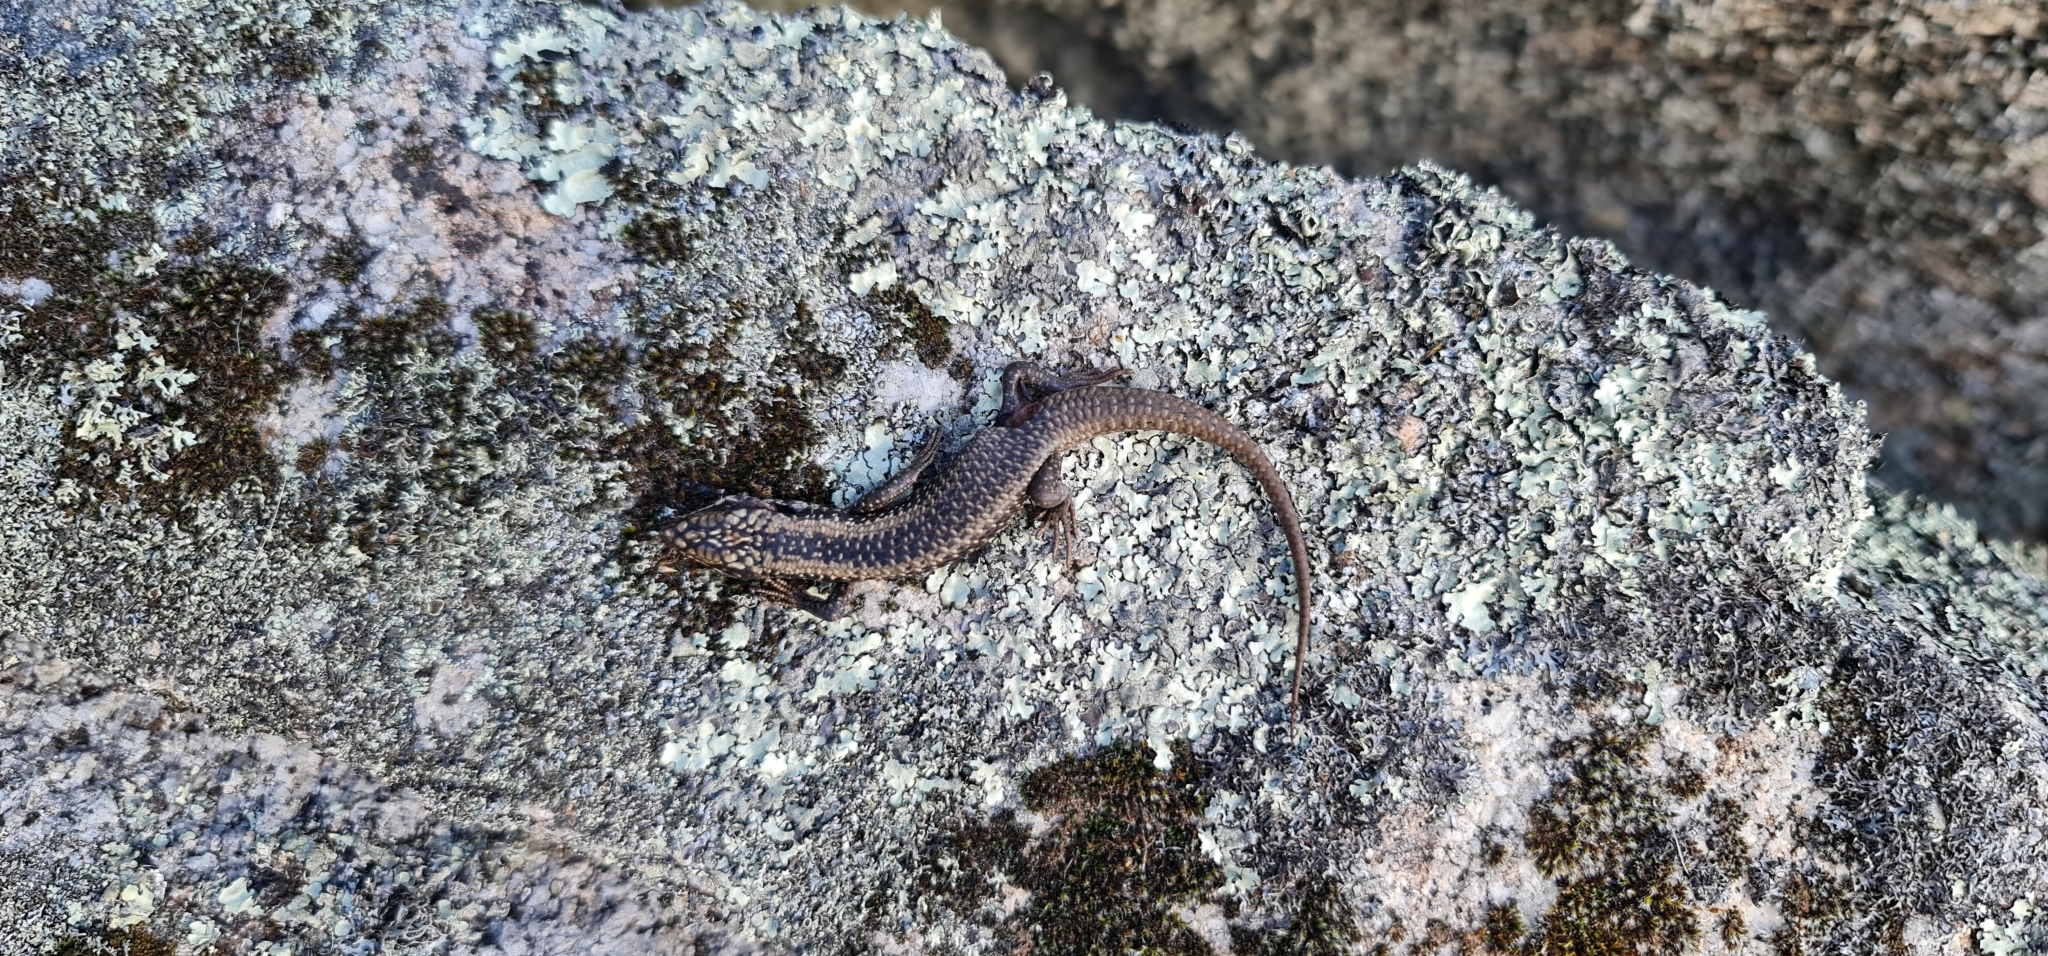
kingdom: Animalia
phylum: Chordata
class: Squamata
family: Scincidae
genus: Egernia
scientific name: Egernia striolata
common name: Tree skink
